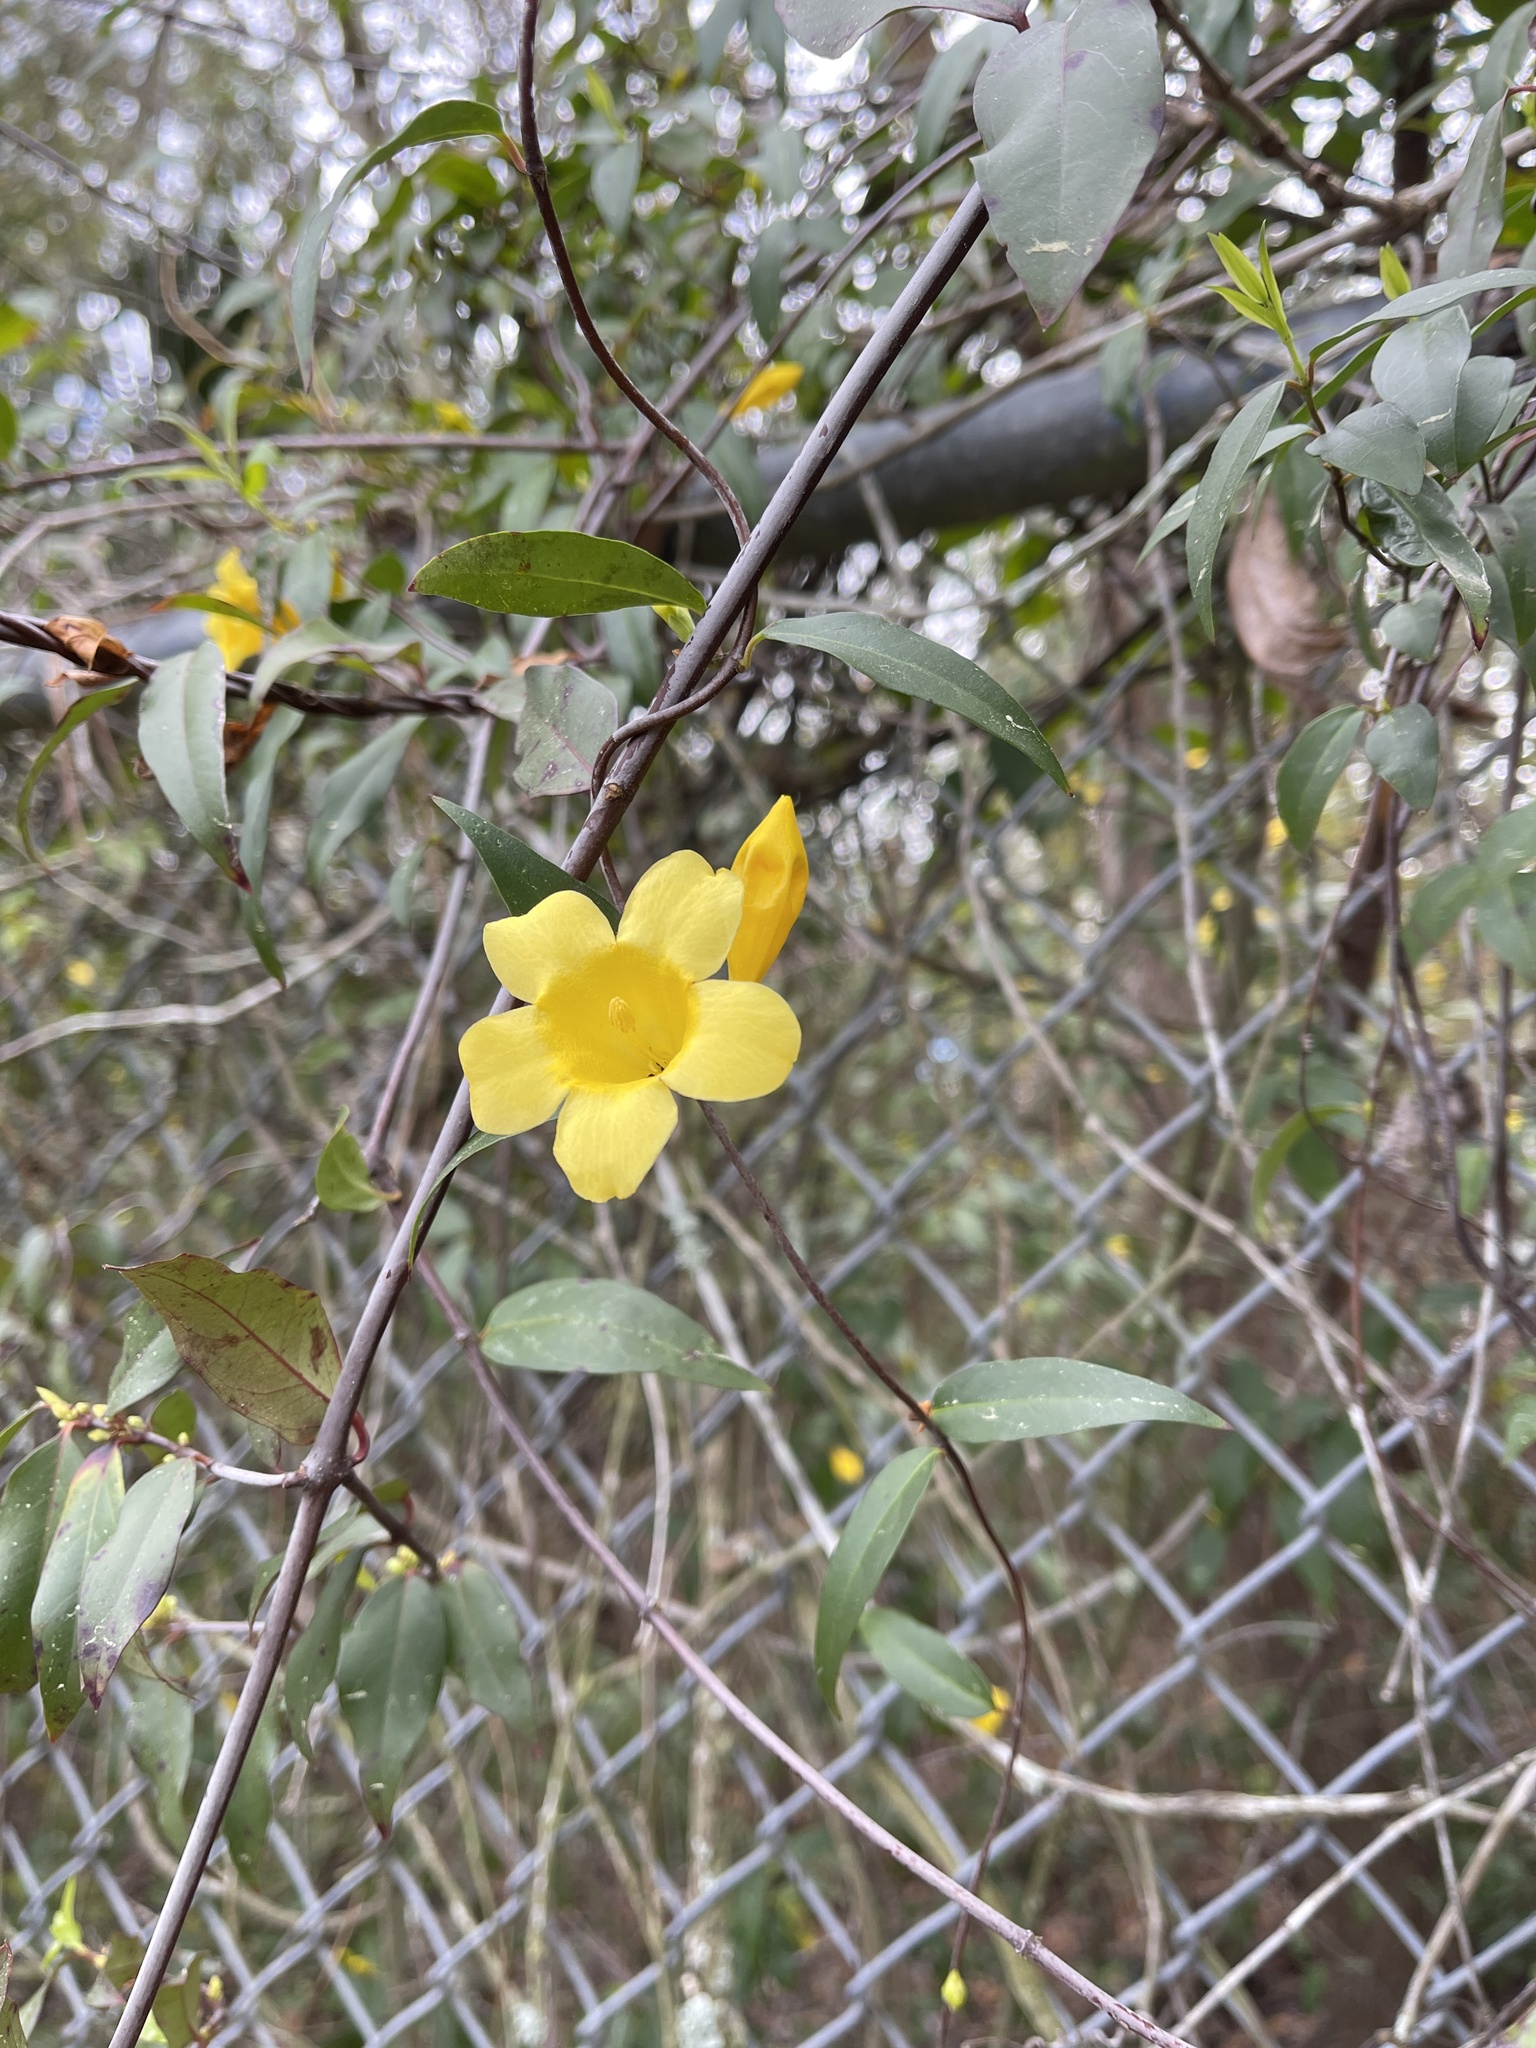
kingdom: Plantae
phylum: Tracheophyta
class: Magnoliopsida
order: Gentianales
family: Gelsemiaceae
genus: Gelsemium
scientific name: Gelsemium sempervirens
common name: Carolina-jasmine
